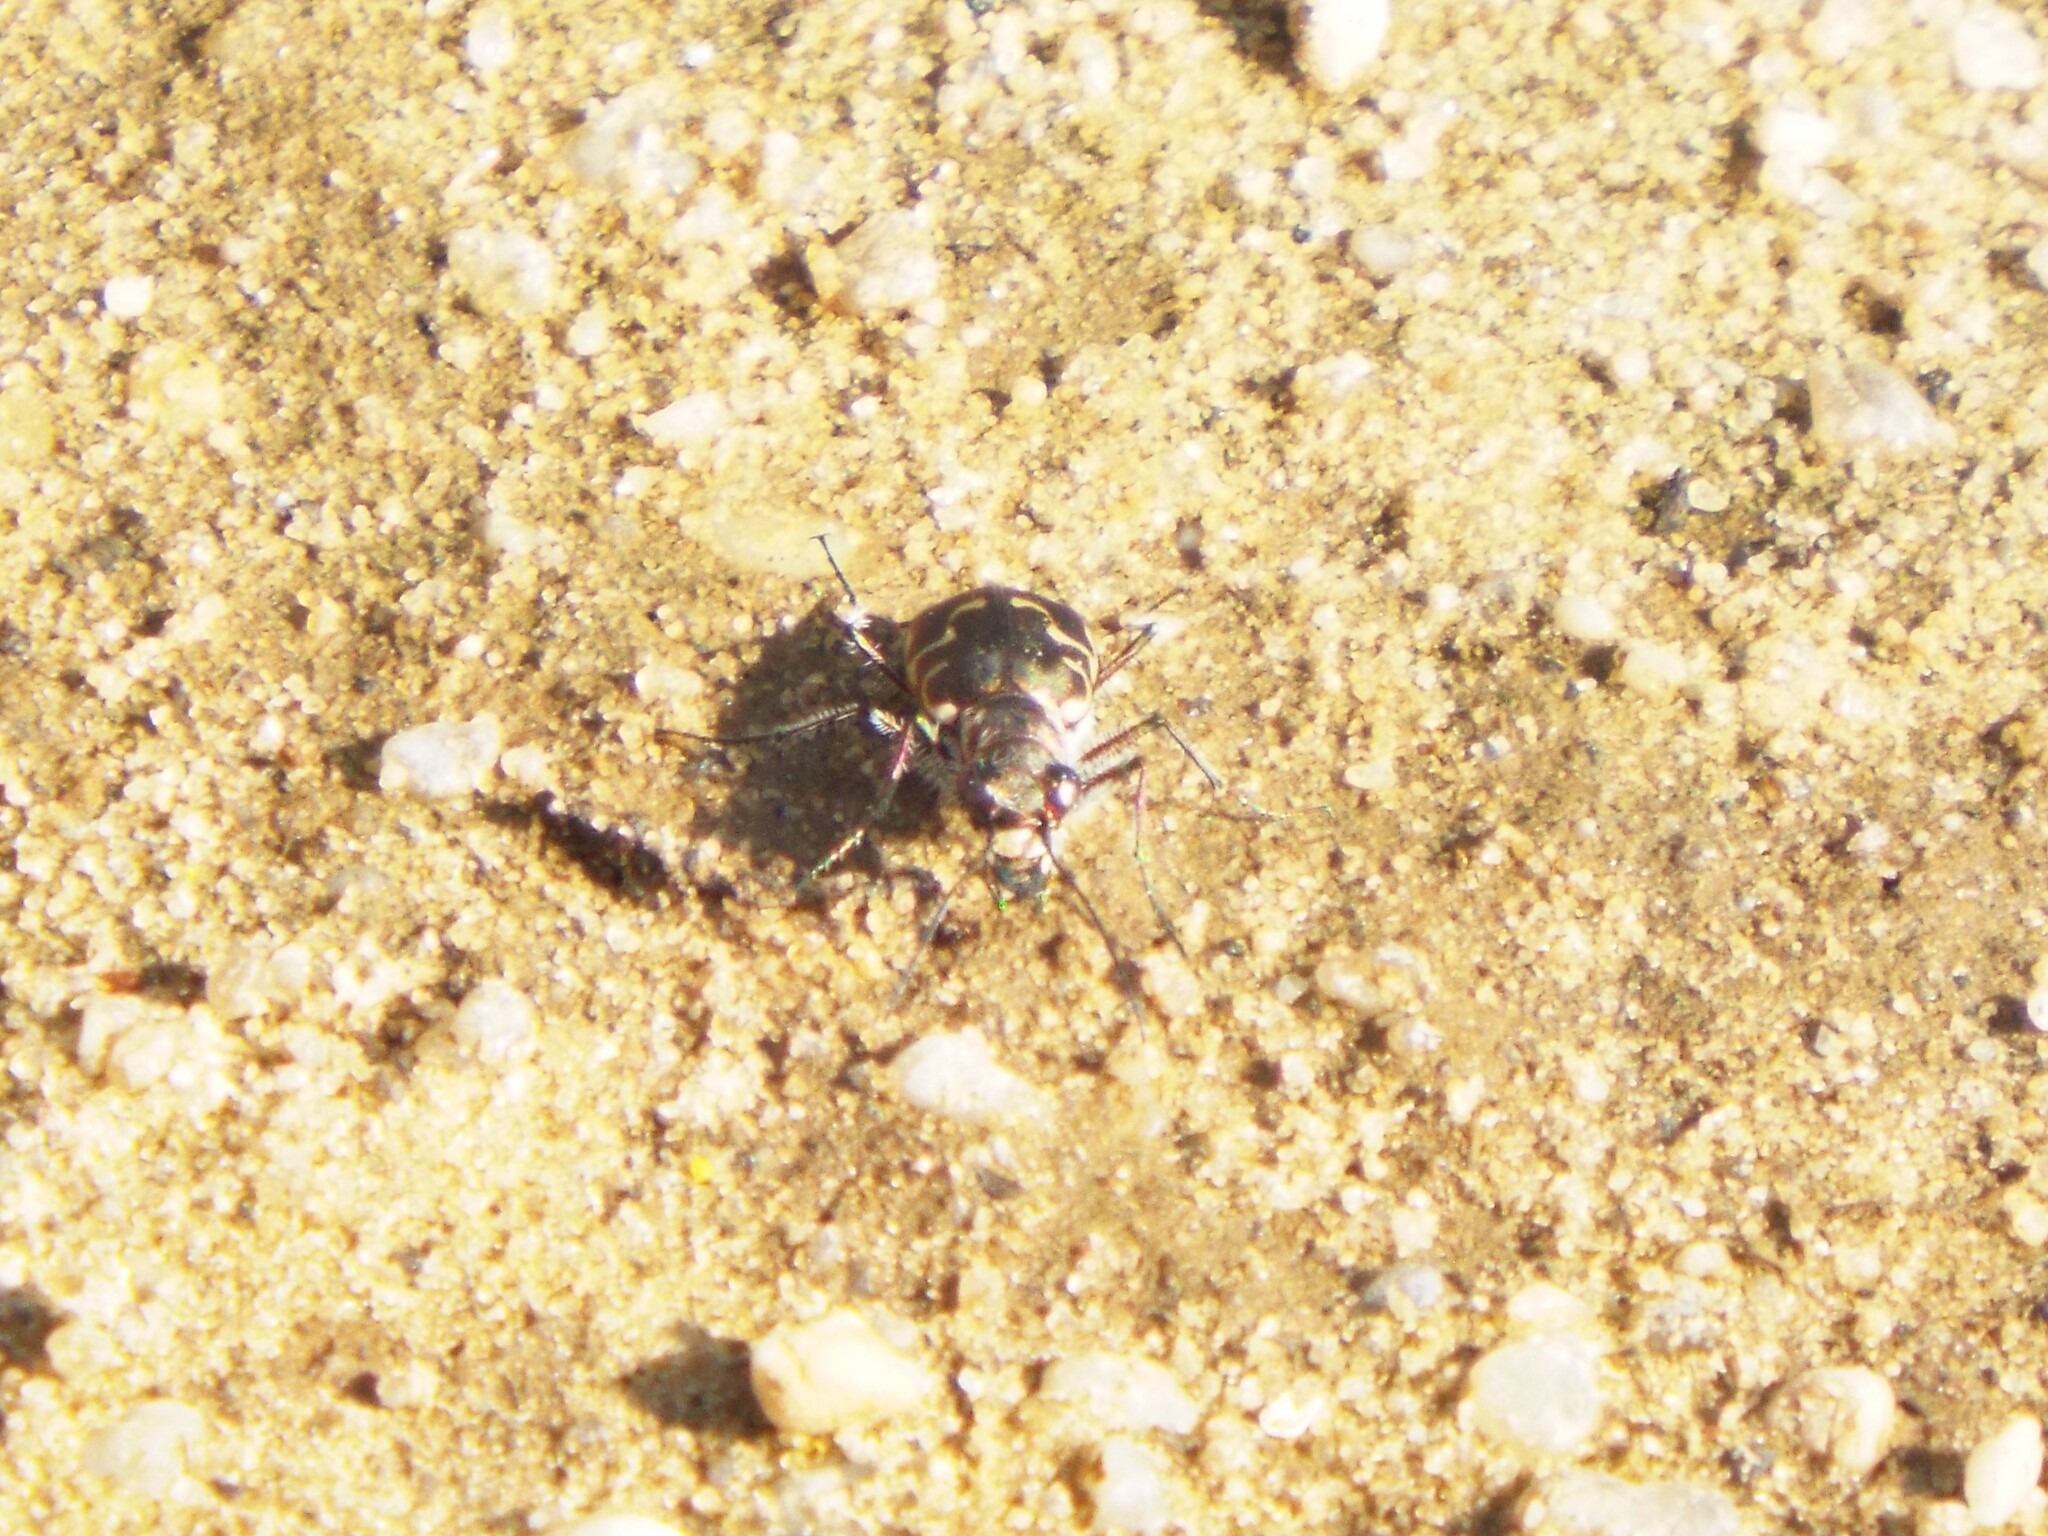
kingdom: Animalia
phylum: Arthropoda
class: Insecta
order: Coleoptera
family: Carabidae
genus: Cicindela
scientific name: Cicindela repanda
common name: Bronzed tiger beetle
